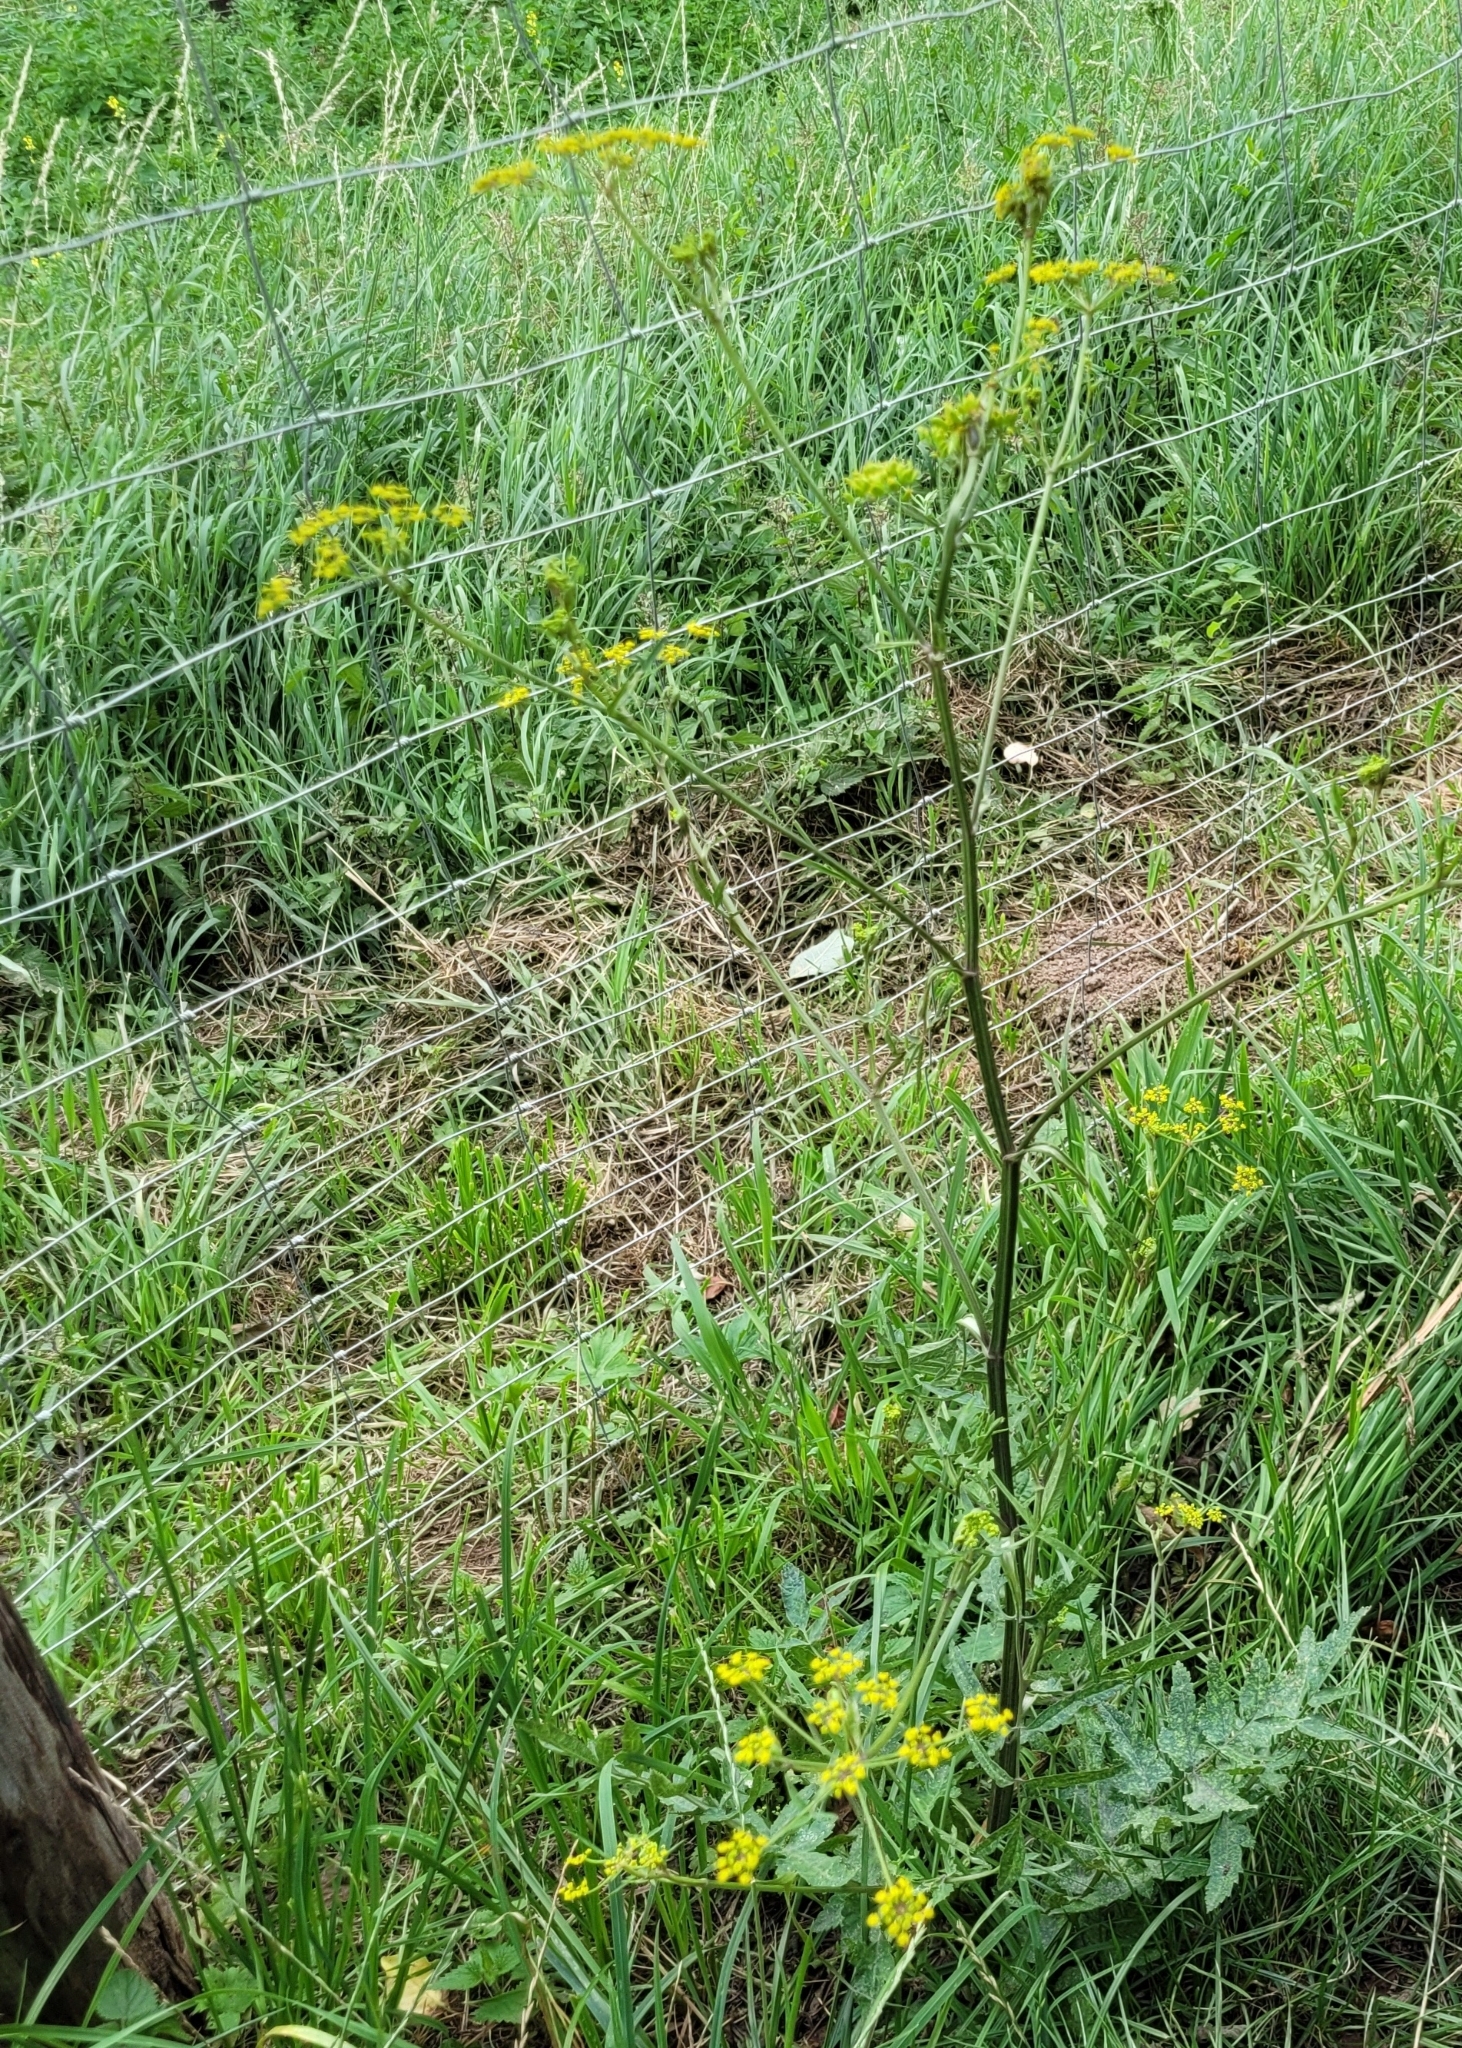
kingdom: Plantae
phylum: Tracheophyta
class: Magnoliopsida
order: Apiales
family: Apiaceae
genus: Pastinaca
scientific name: Pastinaca sativa
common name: Wild parsnip
